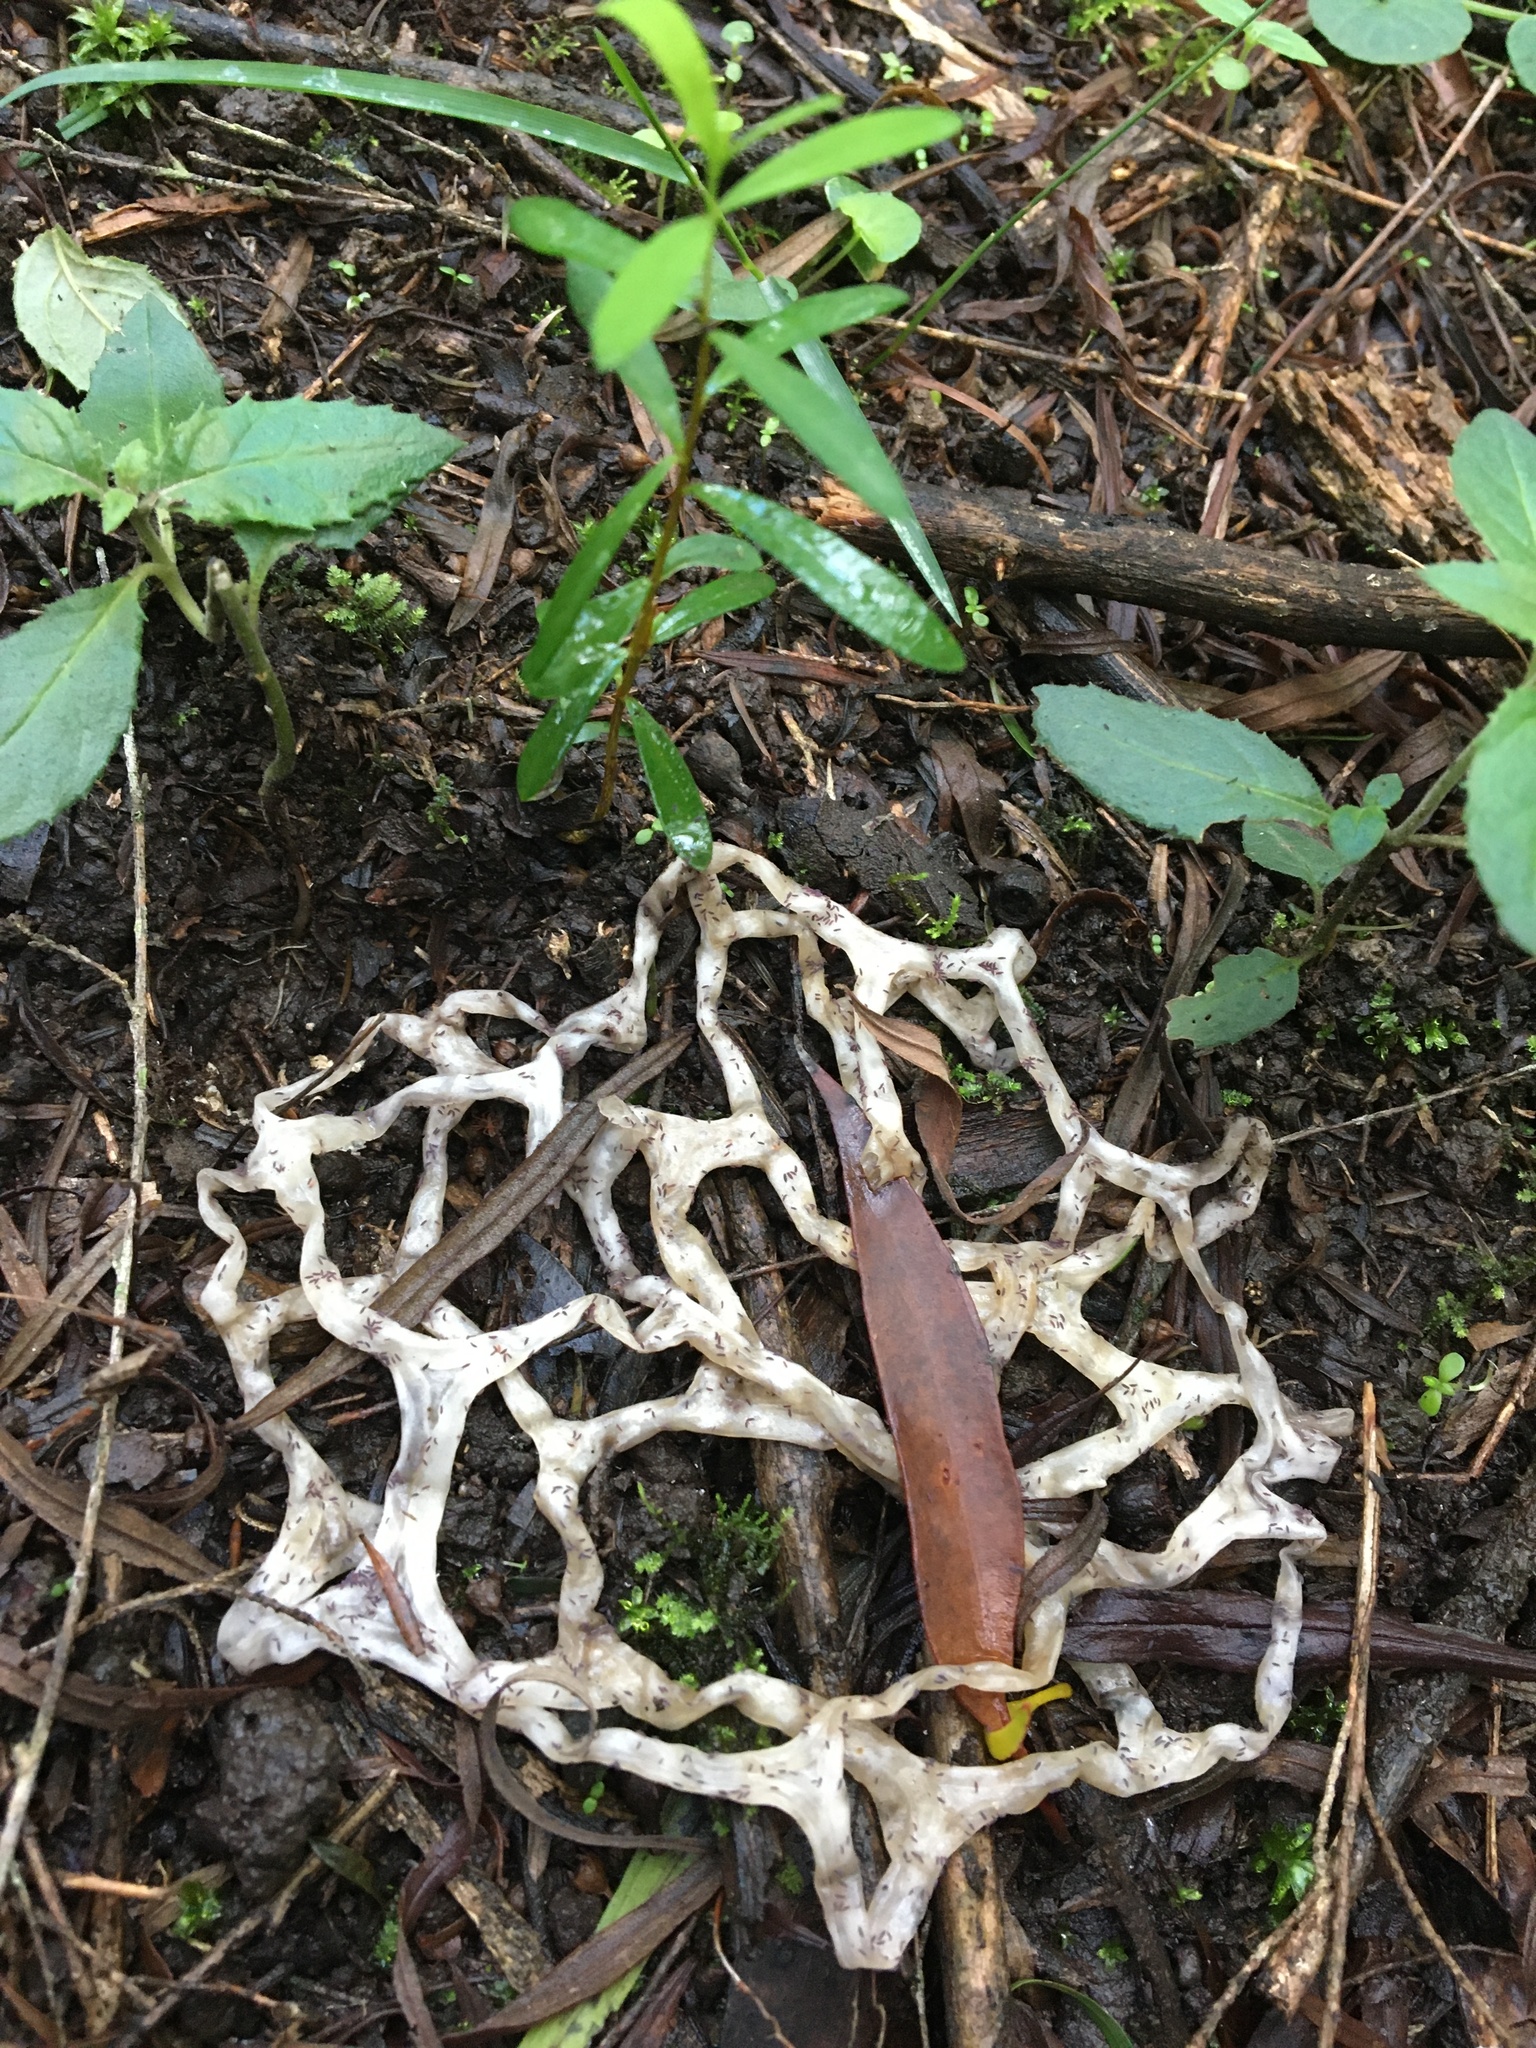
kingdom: Fungi
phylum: Basidiomycota
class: Agaricomycetes
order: Phallales
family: Phallaceae
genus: Ileodictyon
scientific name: Ileodictyon gracile
